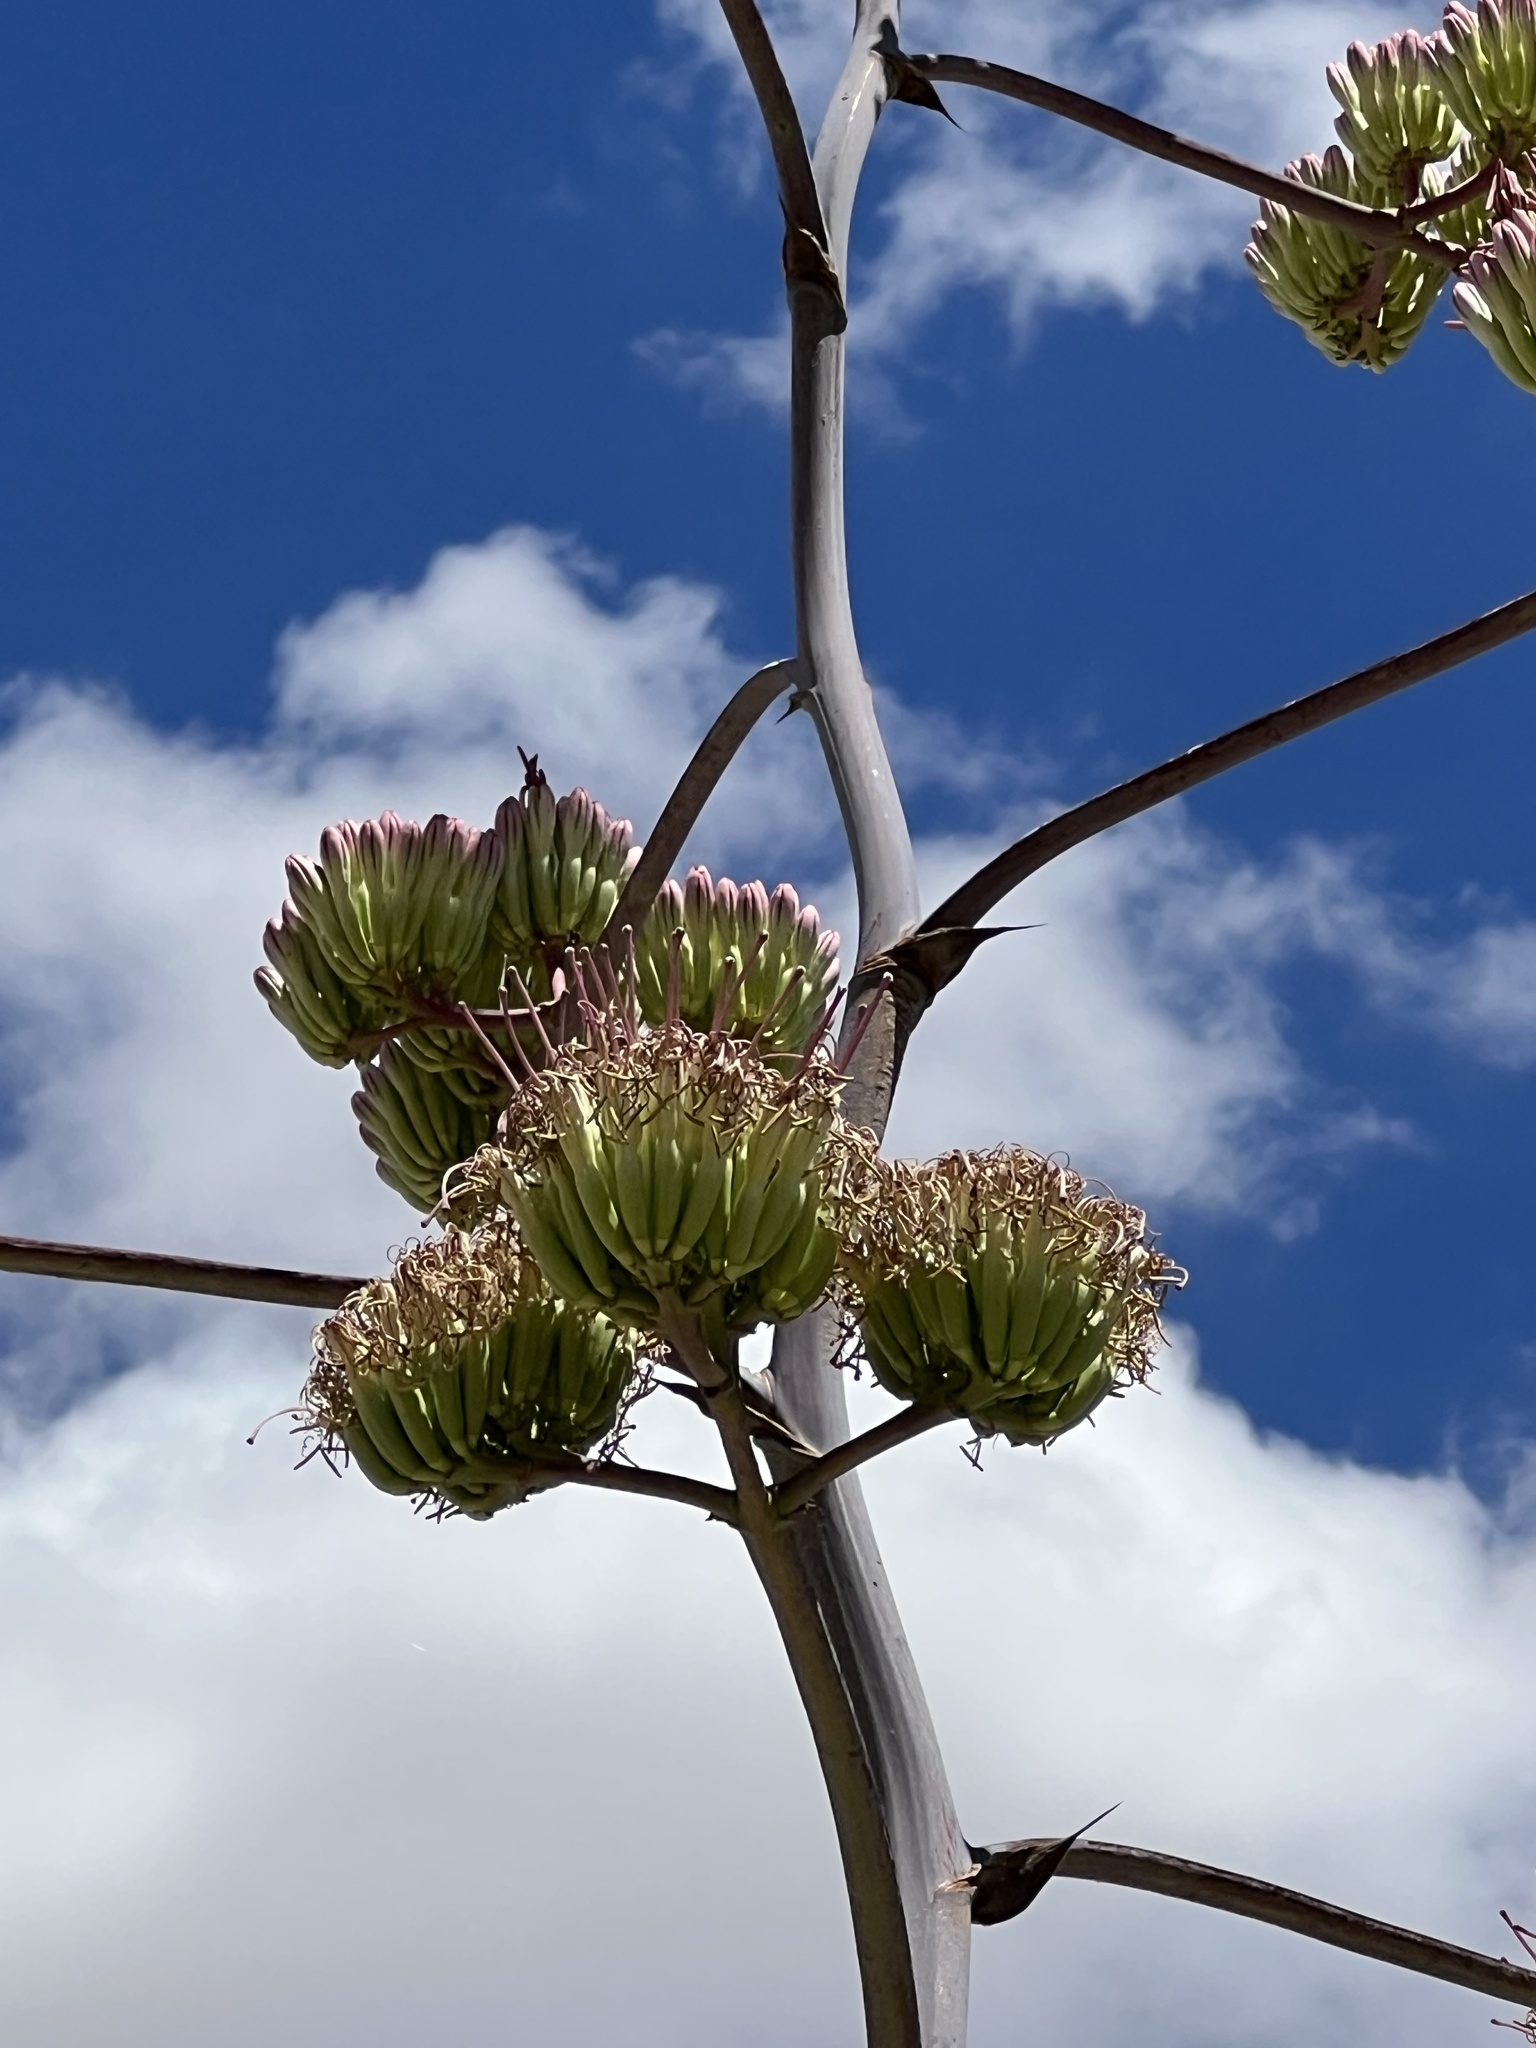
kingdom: Plantae
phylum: Tracheophyta
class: Liliopsida
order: Asparagales
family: Asparagaceae
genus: Agave
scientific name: Agave palmeri
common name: Palmer agave
